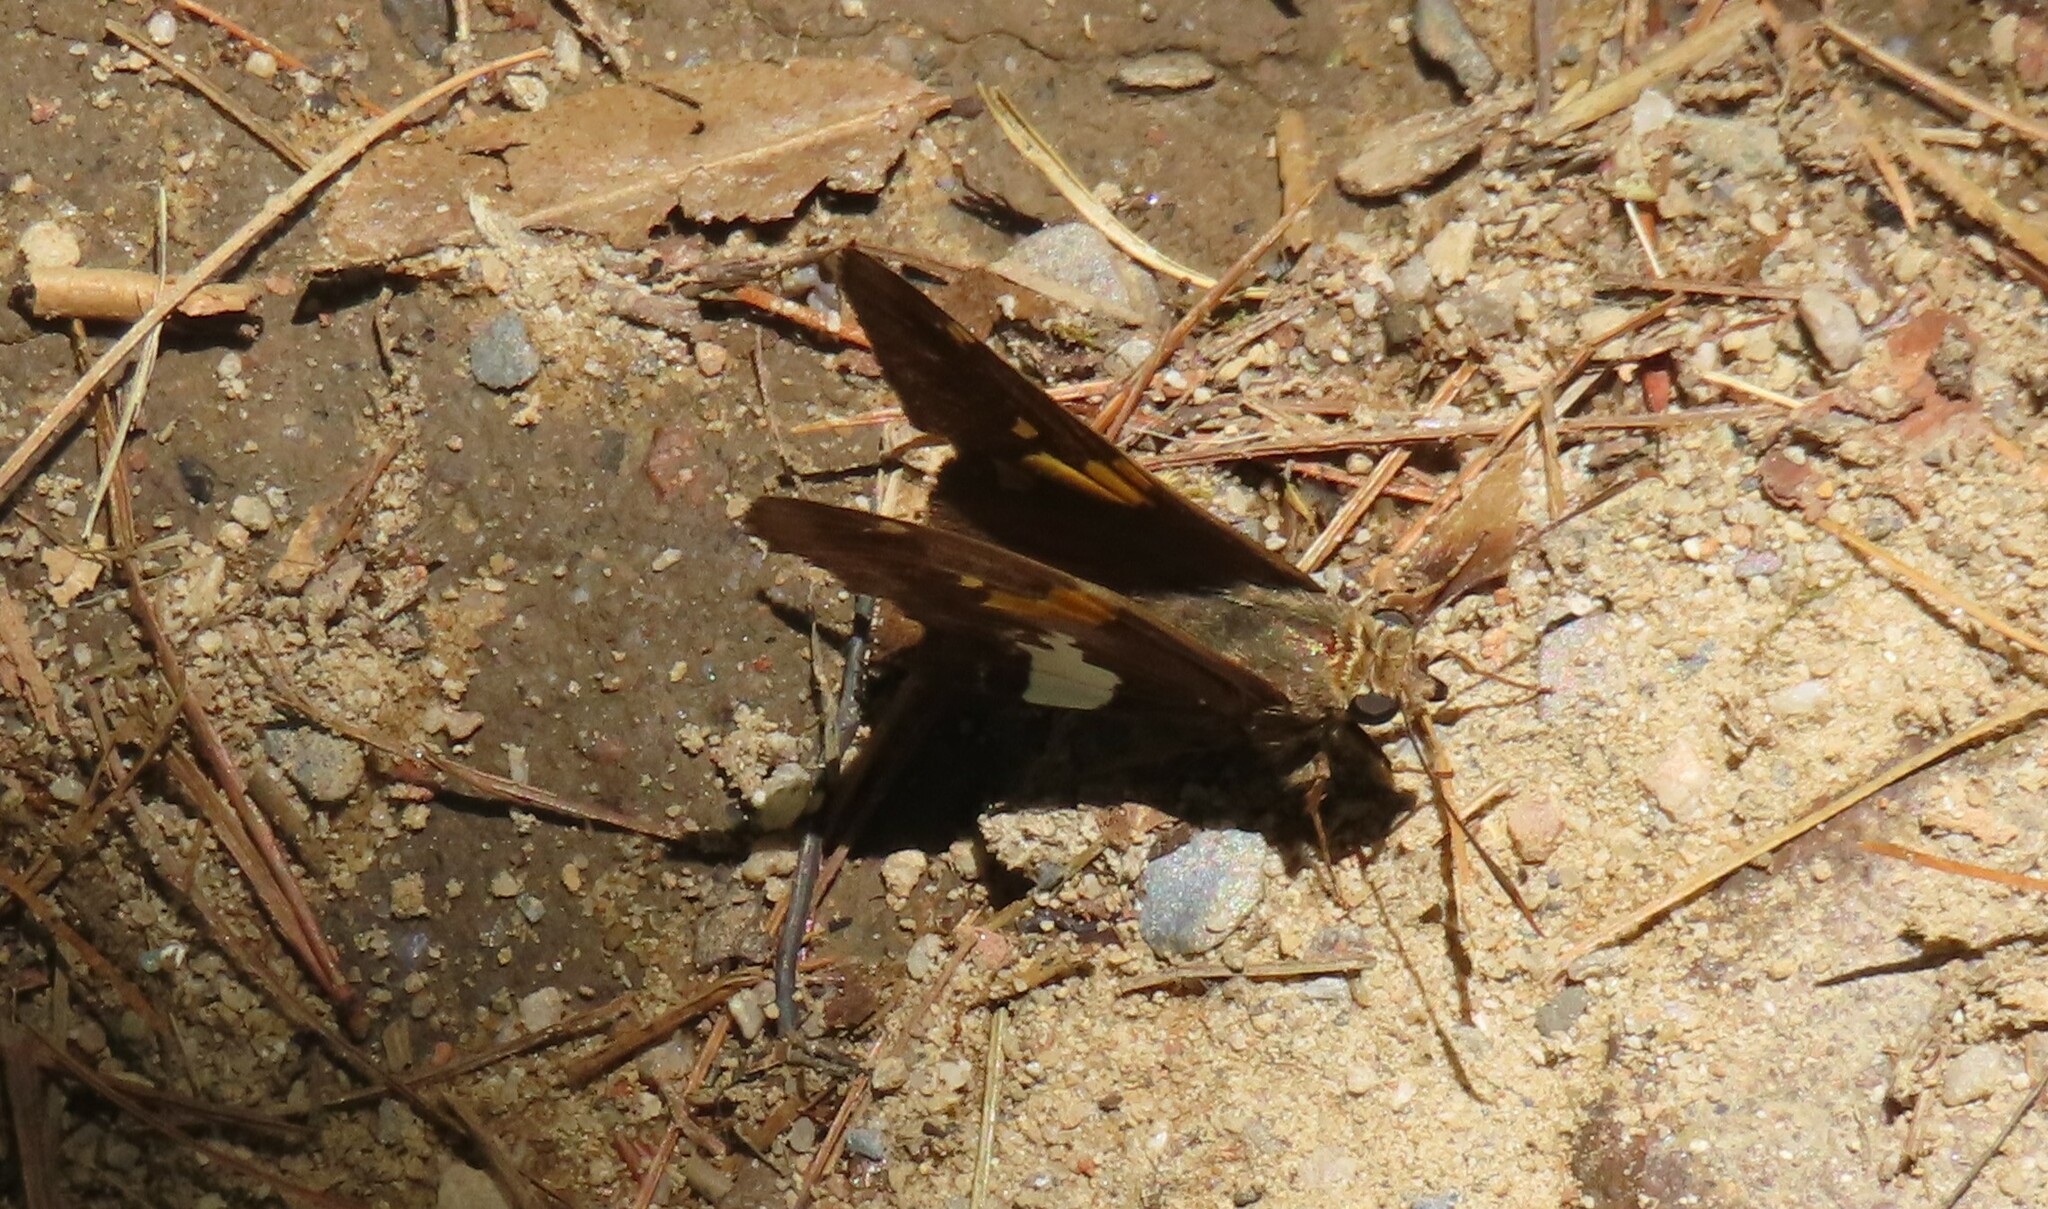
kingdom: Animalia
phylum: Arthropoda
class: Insecta
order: Lepidoptera
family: Hesperiidae
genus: Epargyreus
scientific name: Epargyreus clarus
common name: Silver-spotted skipper
